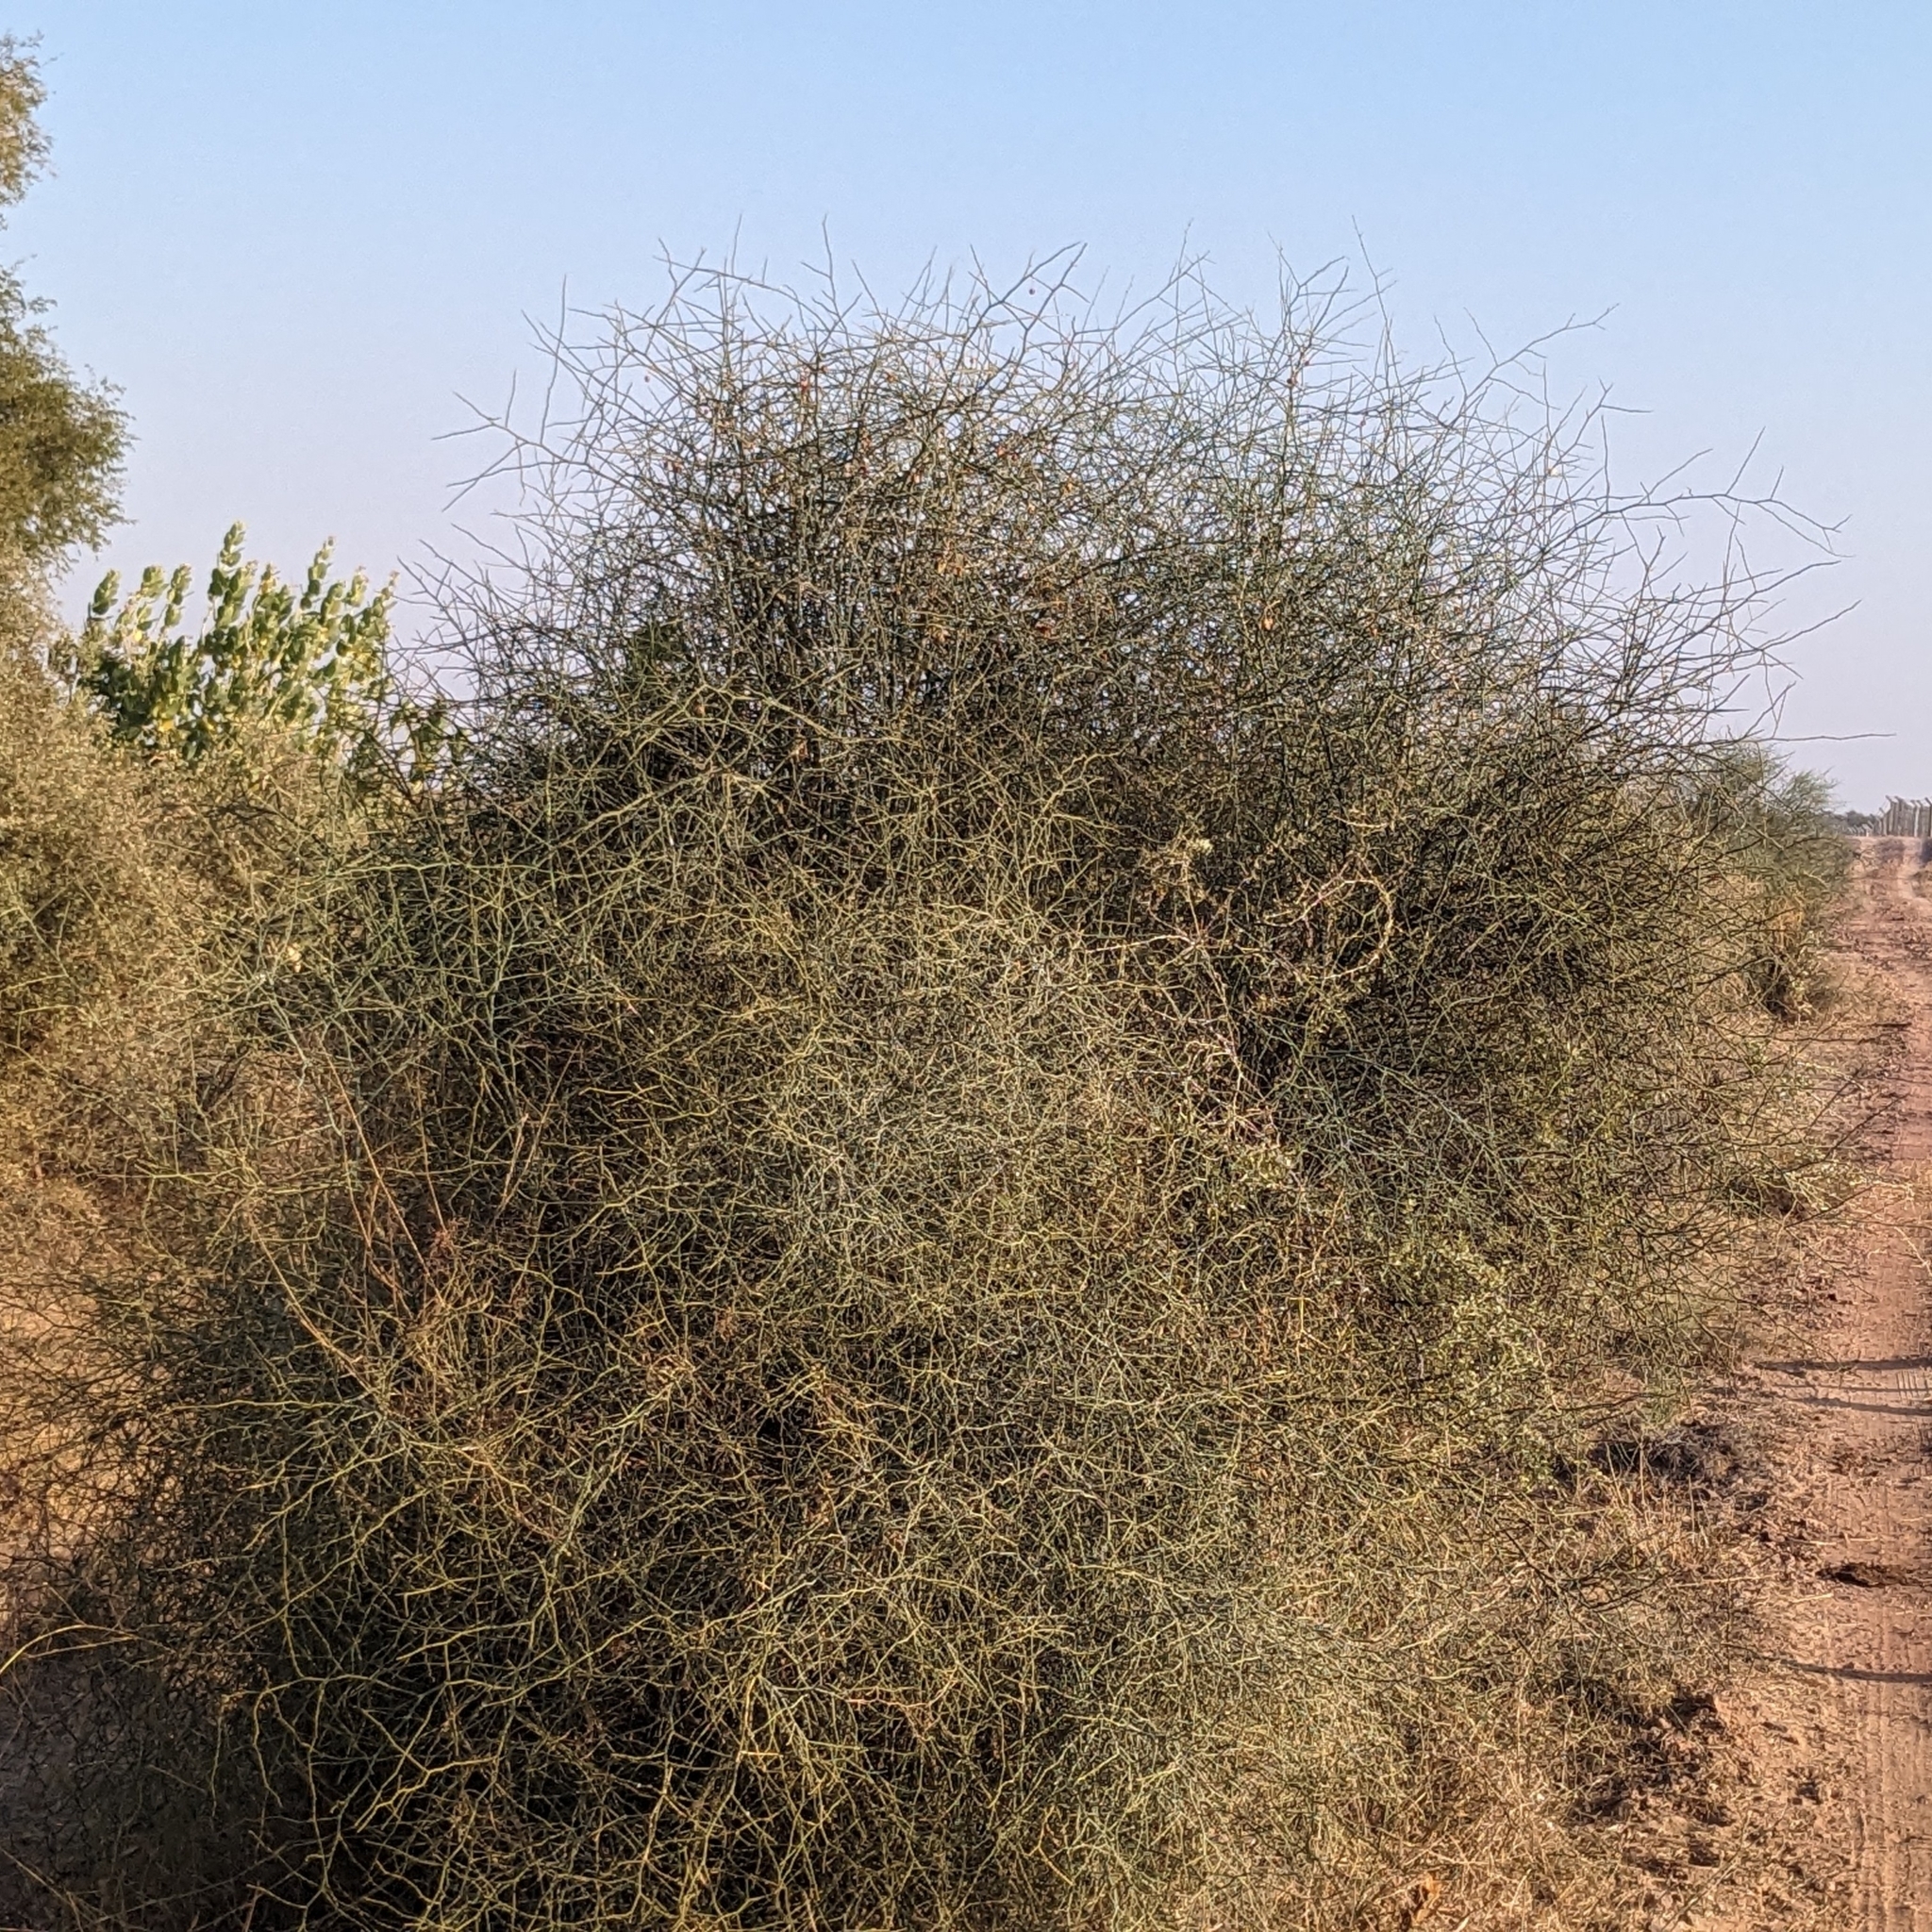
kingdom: Plantae
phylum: Tracheophyta
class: Magnoliopsida
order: Brassicales
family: Capparaceae
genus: Capparis
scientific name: Capparis decidua
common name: Sodada
